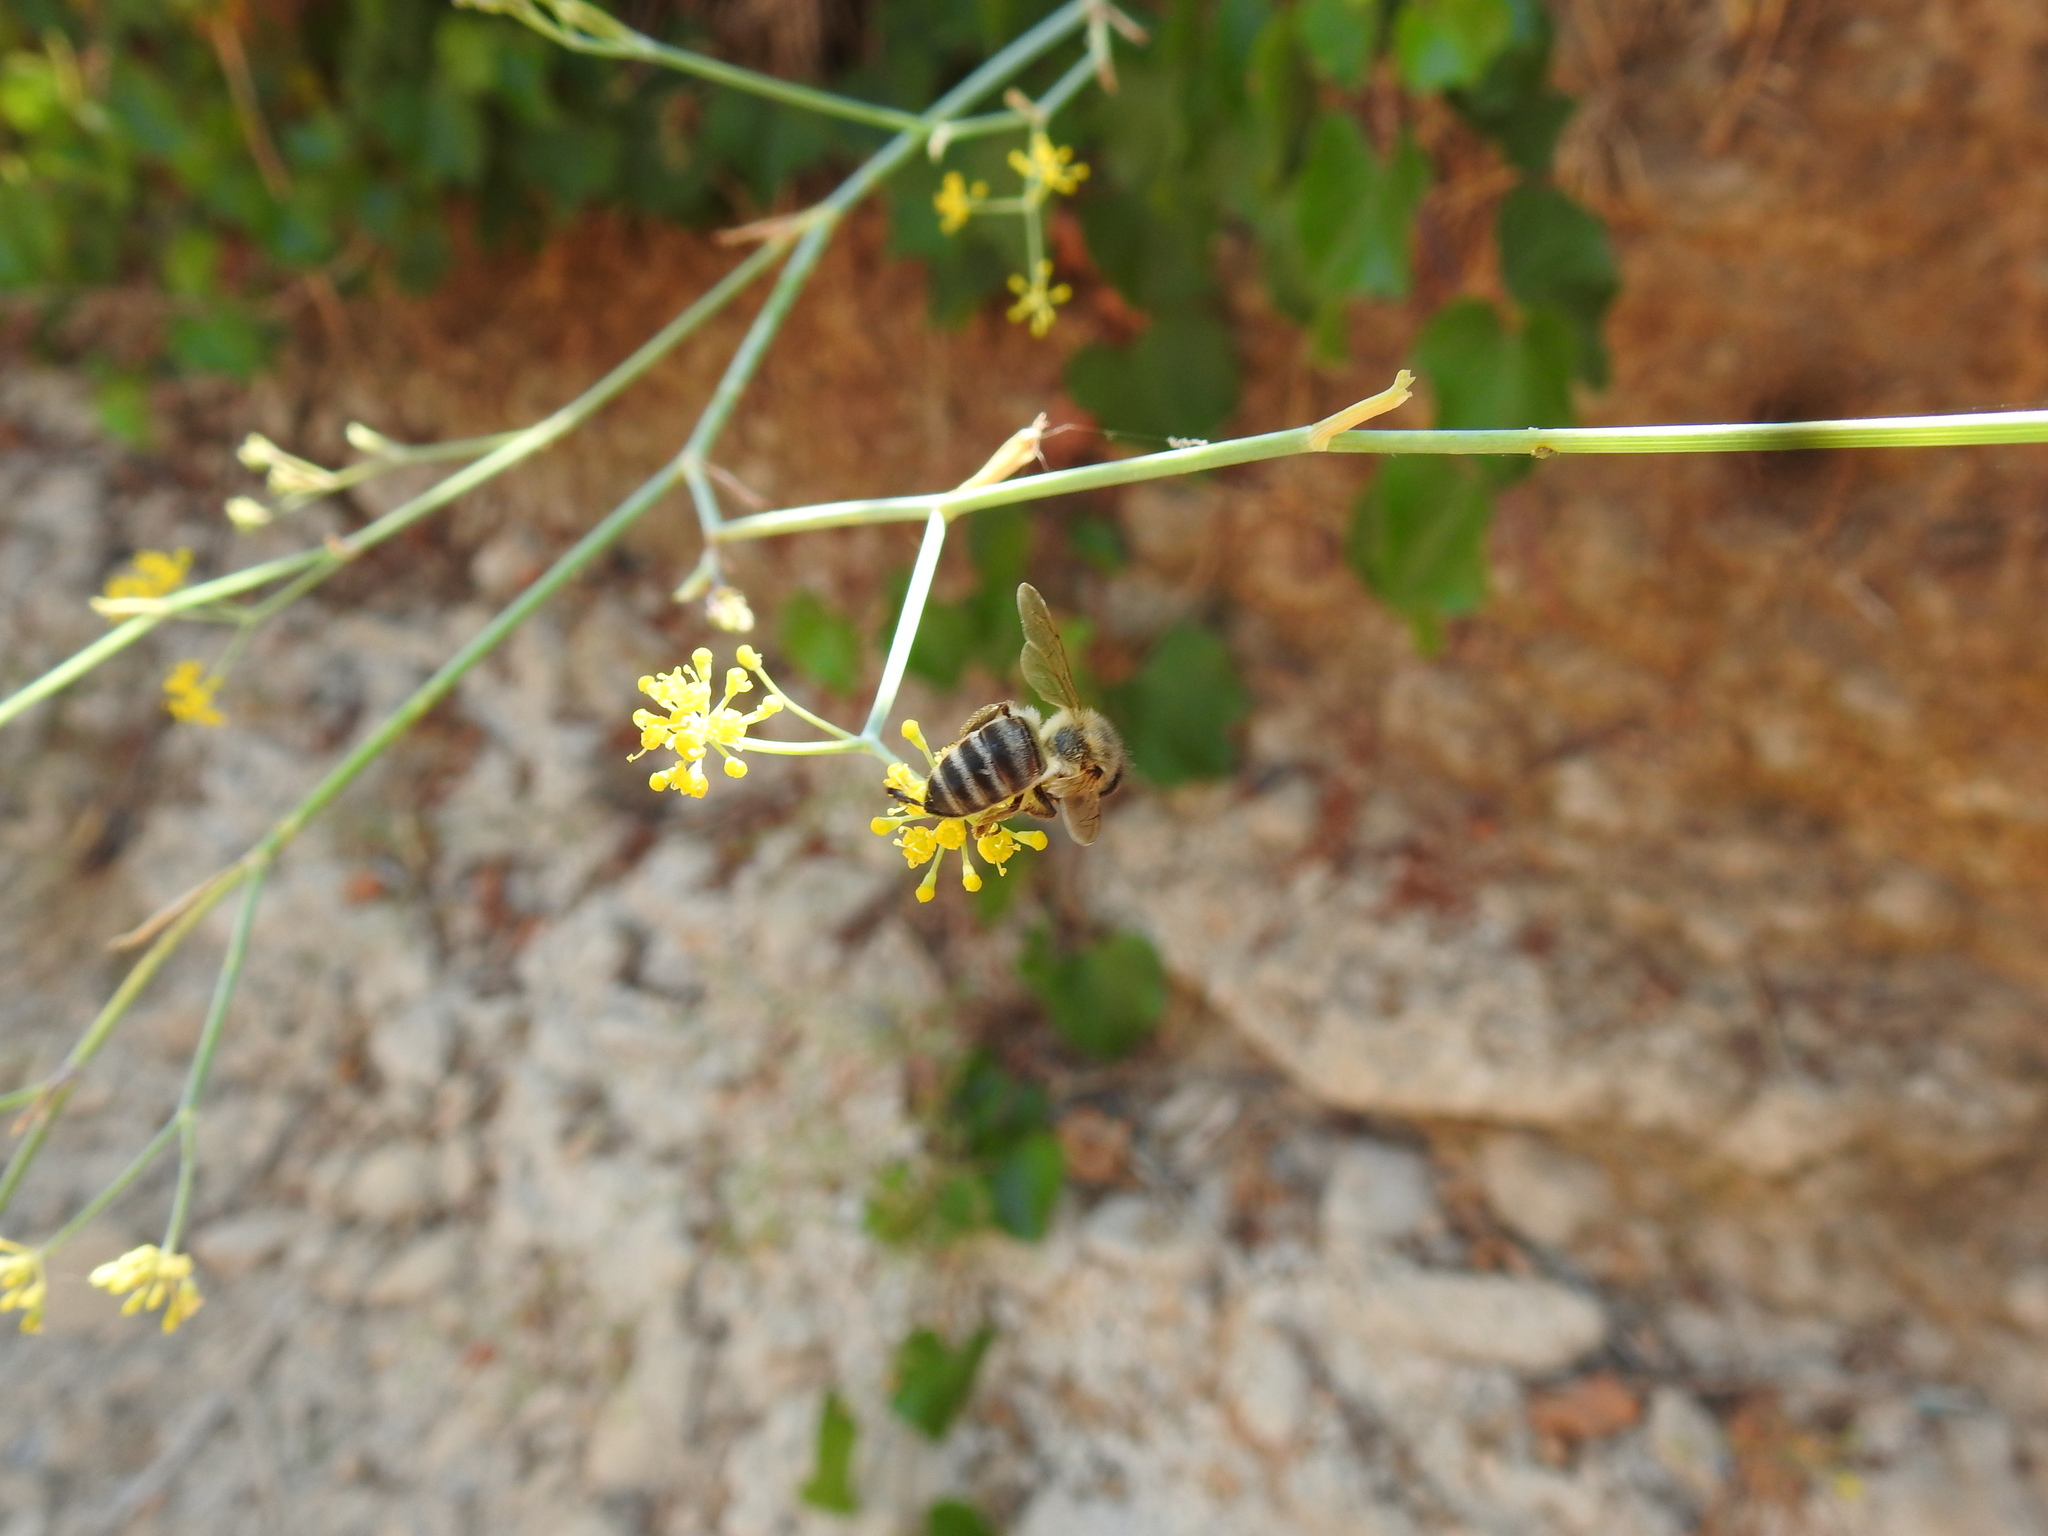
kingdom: Animalia
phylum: Arthropoda
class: Insecta
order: Hymenoptera
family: Apidae
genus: Apis
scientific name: Apis mellifera
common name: Honey bee
